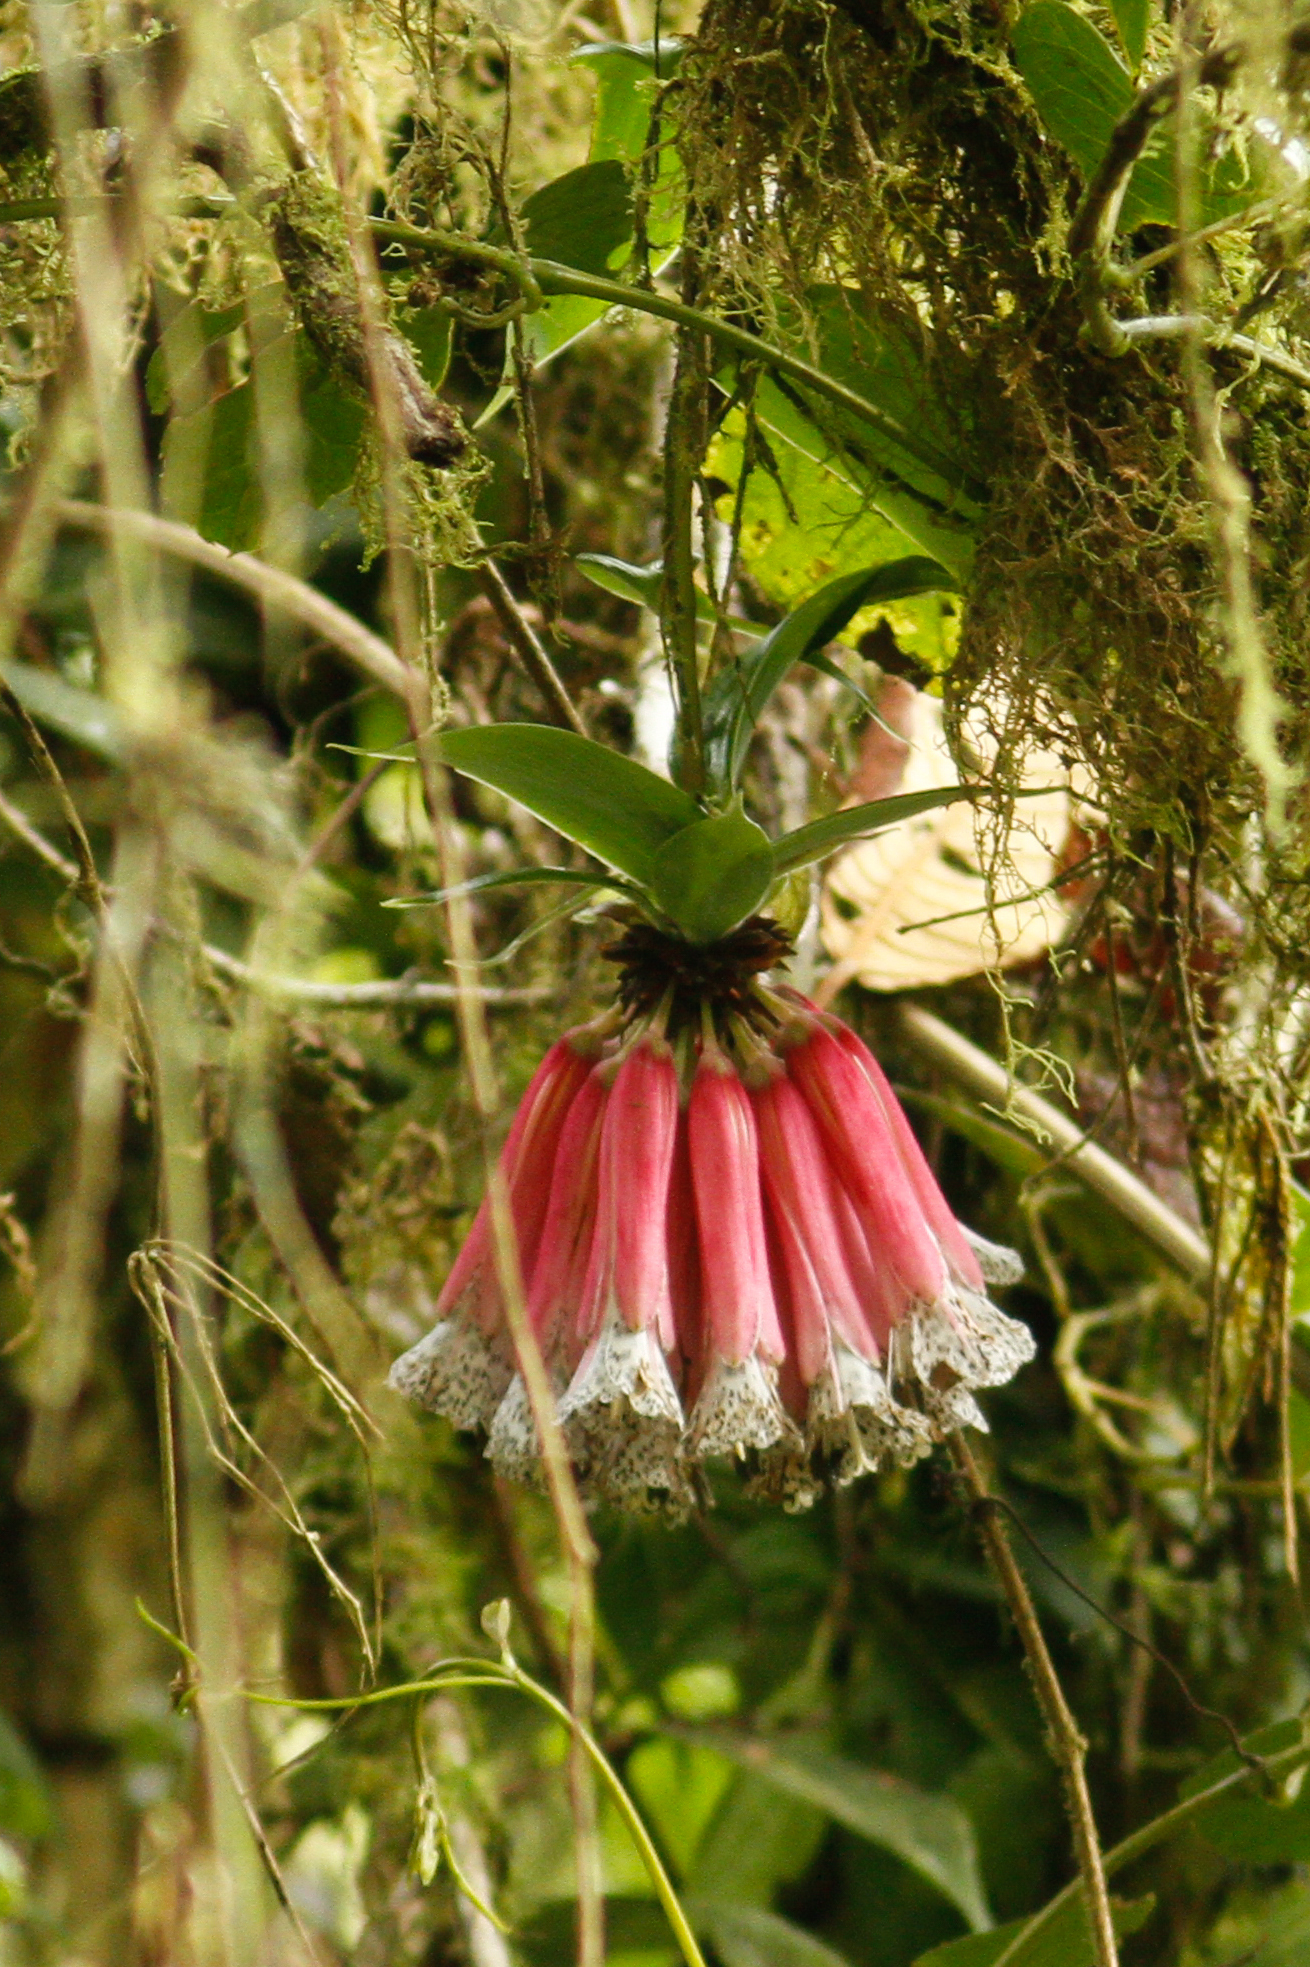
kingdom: Plantae
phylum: Tracheophyta
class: Liliopsida
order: Liliales
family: Alstroemeriaceae
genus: Bomarea
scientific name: Bomarea pardina
